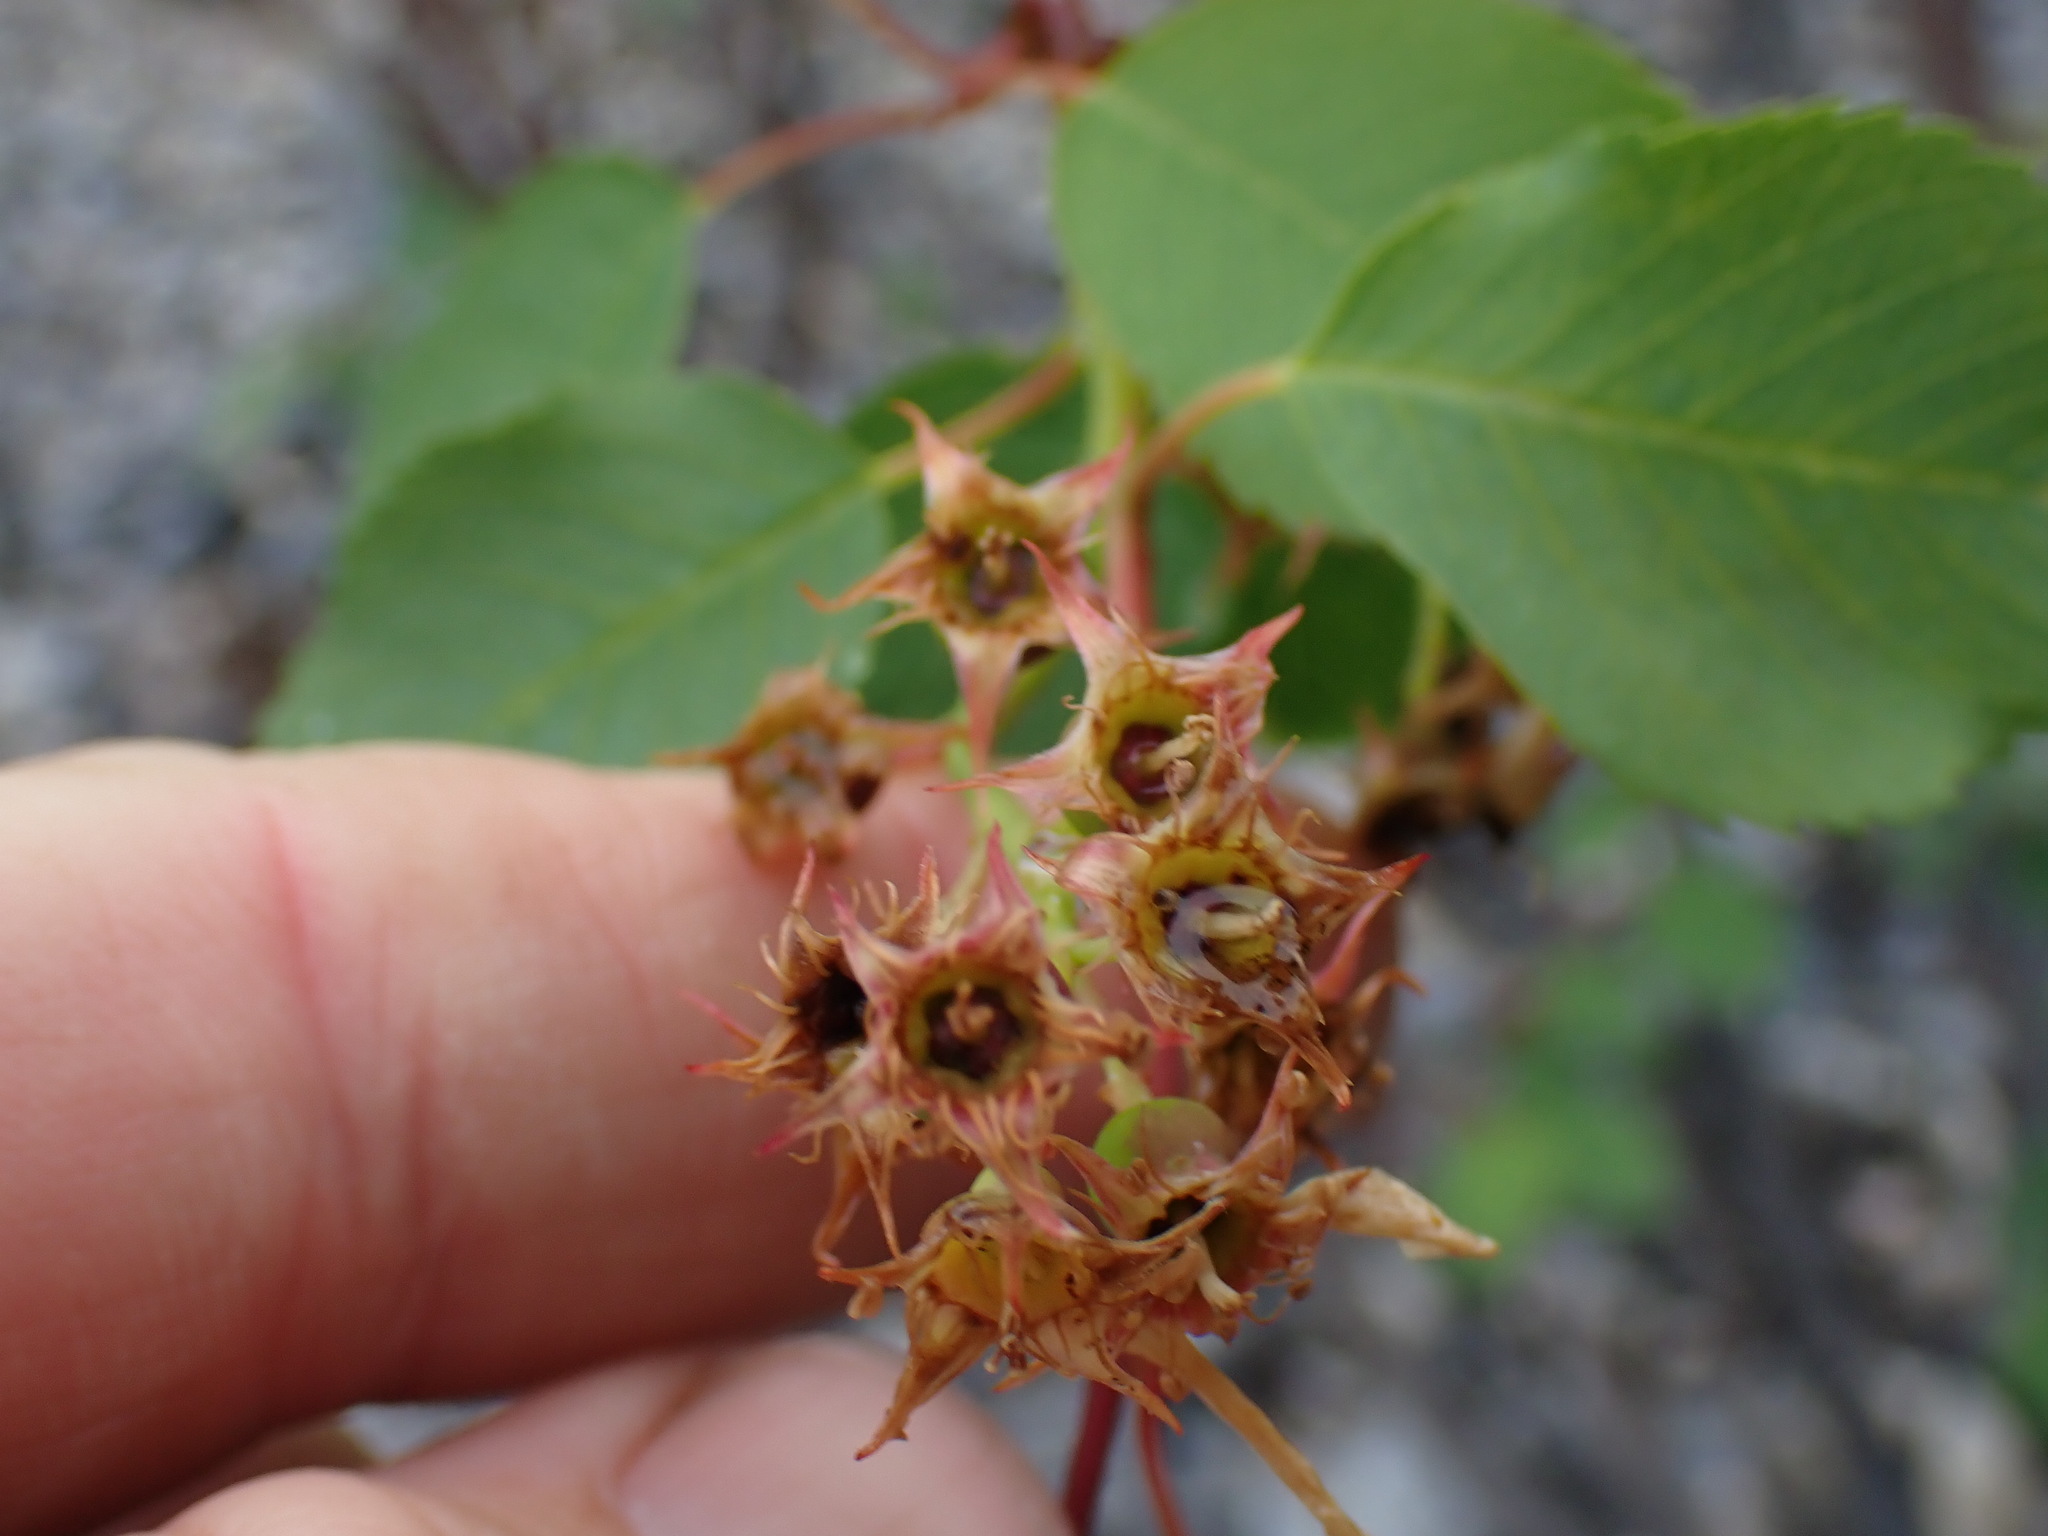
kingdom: Plantae
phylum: Tracheophyta
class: Magnoliopsida
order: Rosales
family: Rosaceae
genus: Amelanchier
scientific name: Amelanchier alnifolia
